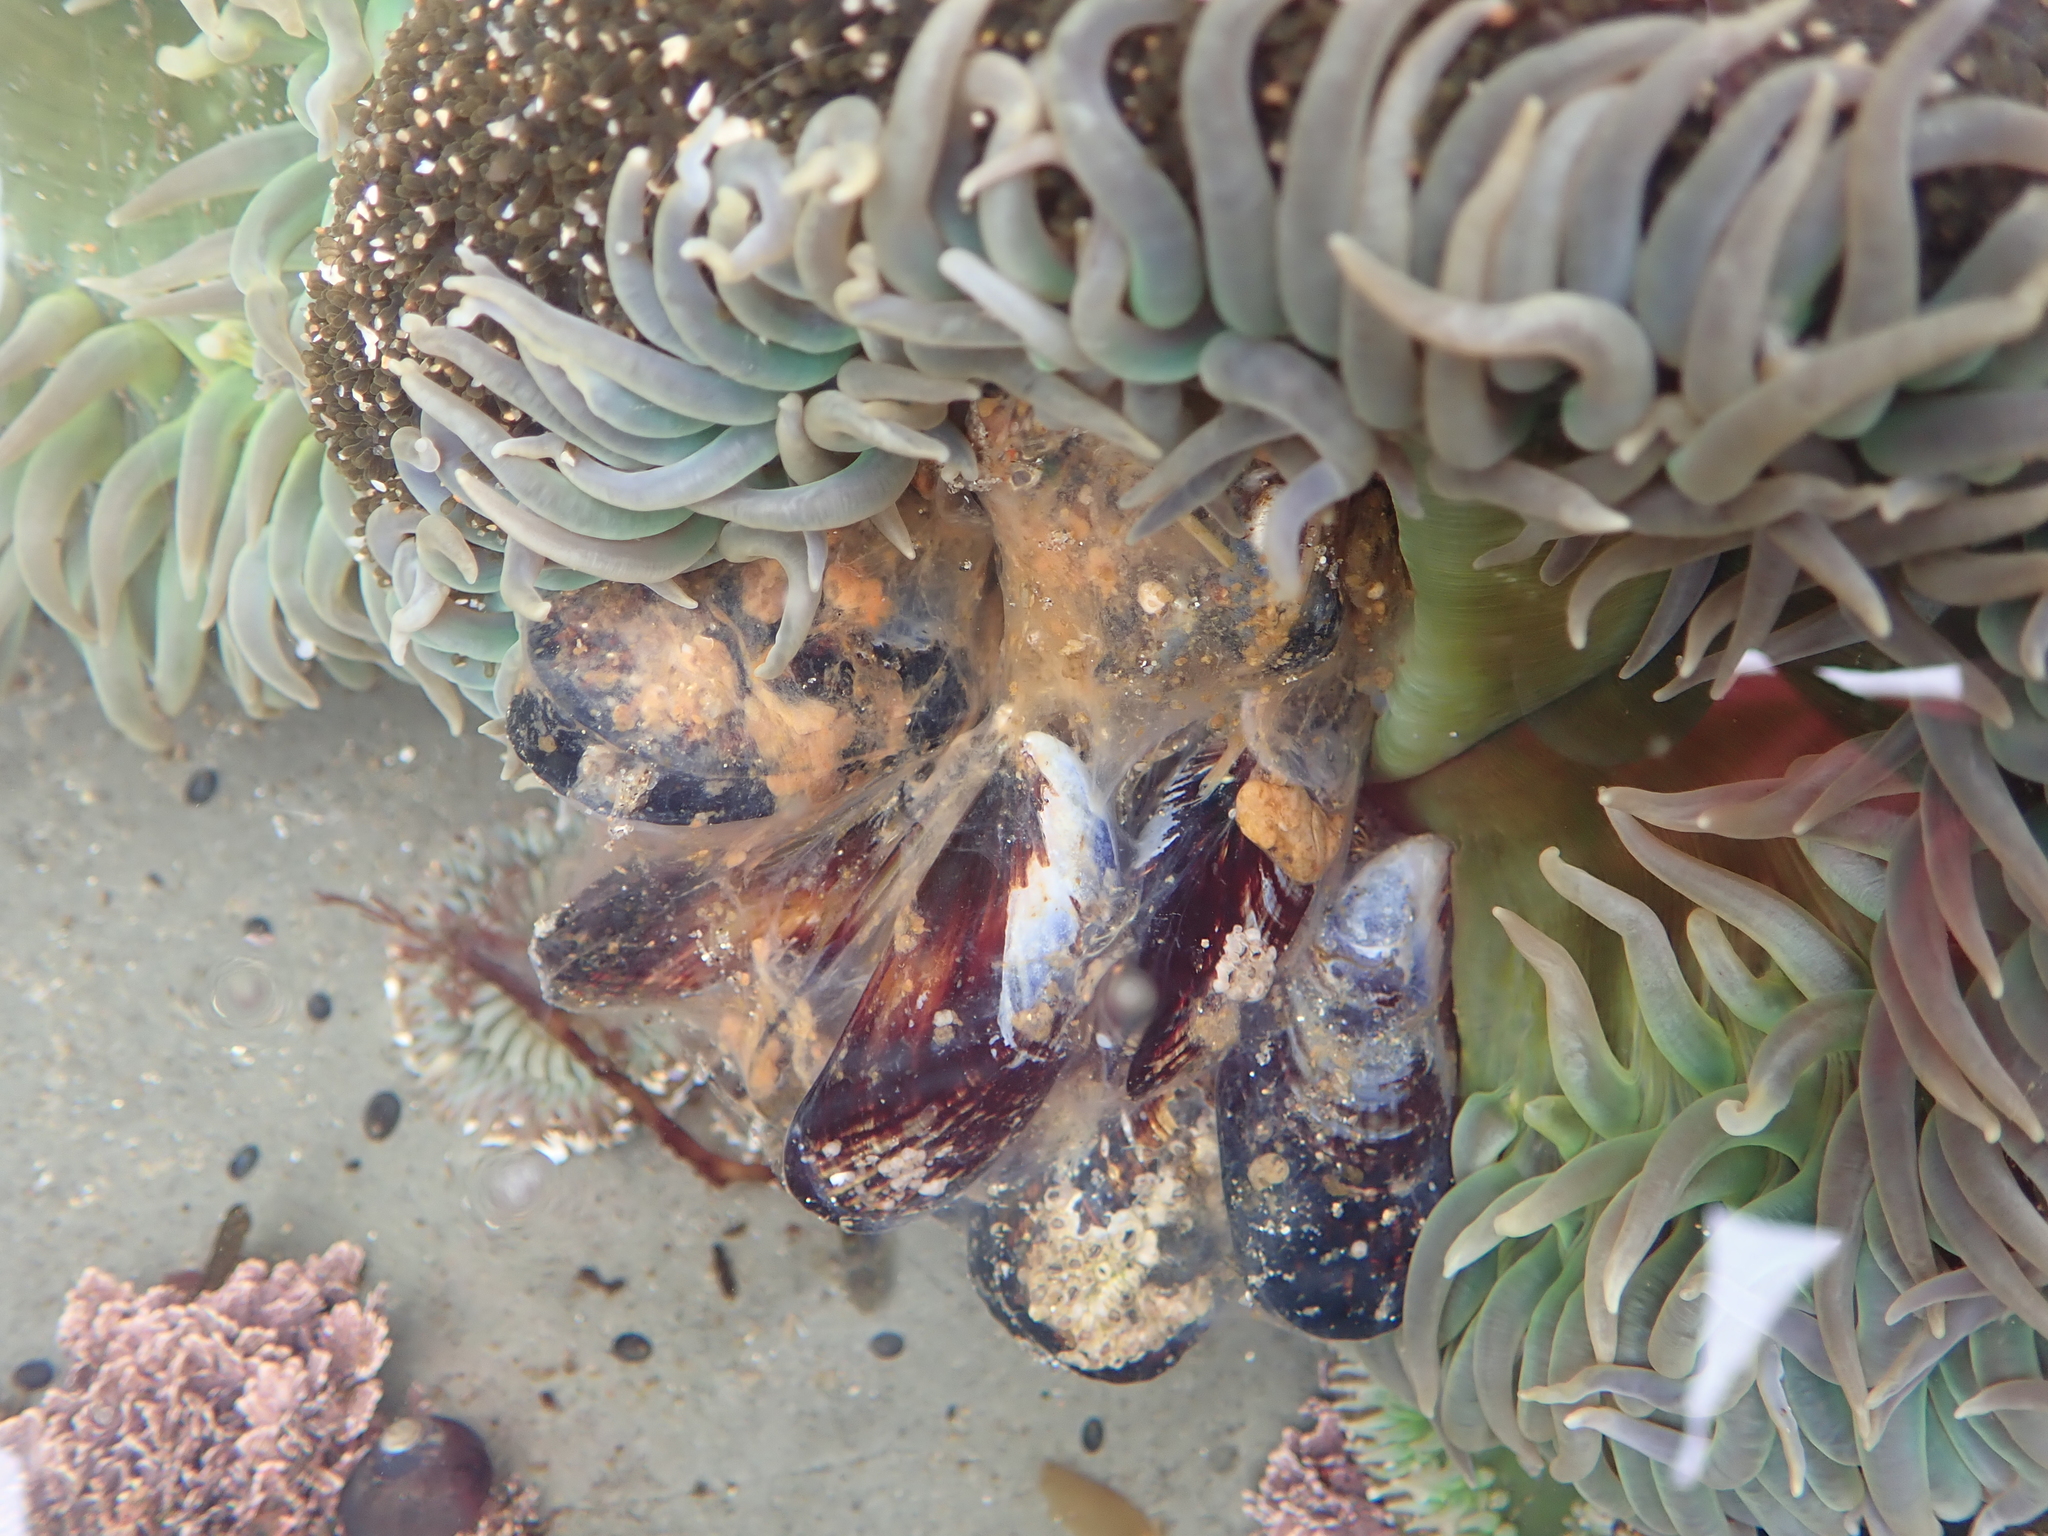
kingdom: Animalia
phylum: Cnidaria
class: Anthozoa
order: Actiniaria
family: Actiniidae
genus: Anthopleura
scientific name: Anthopleura xanthogrammica
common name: Giant green anemone
